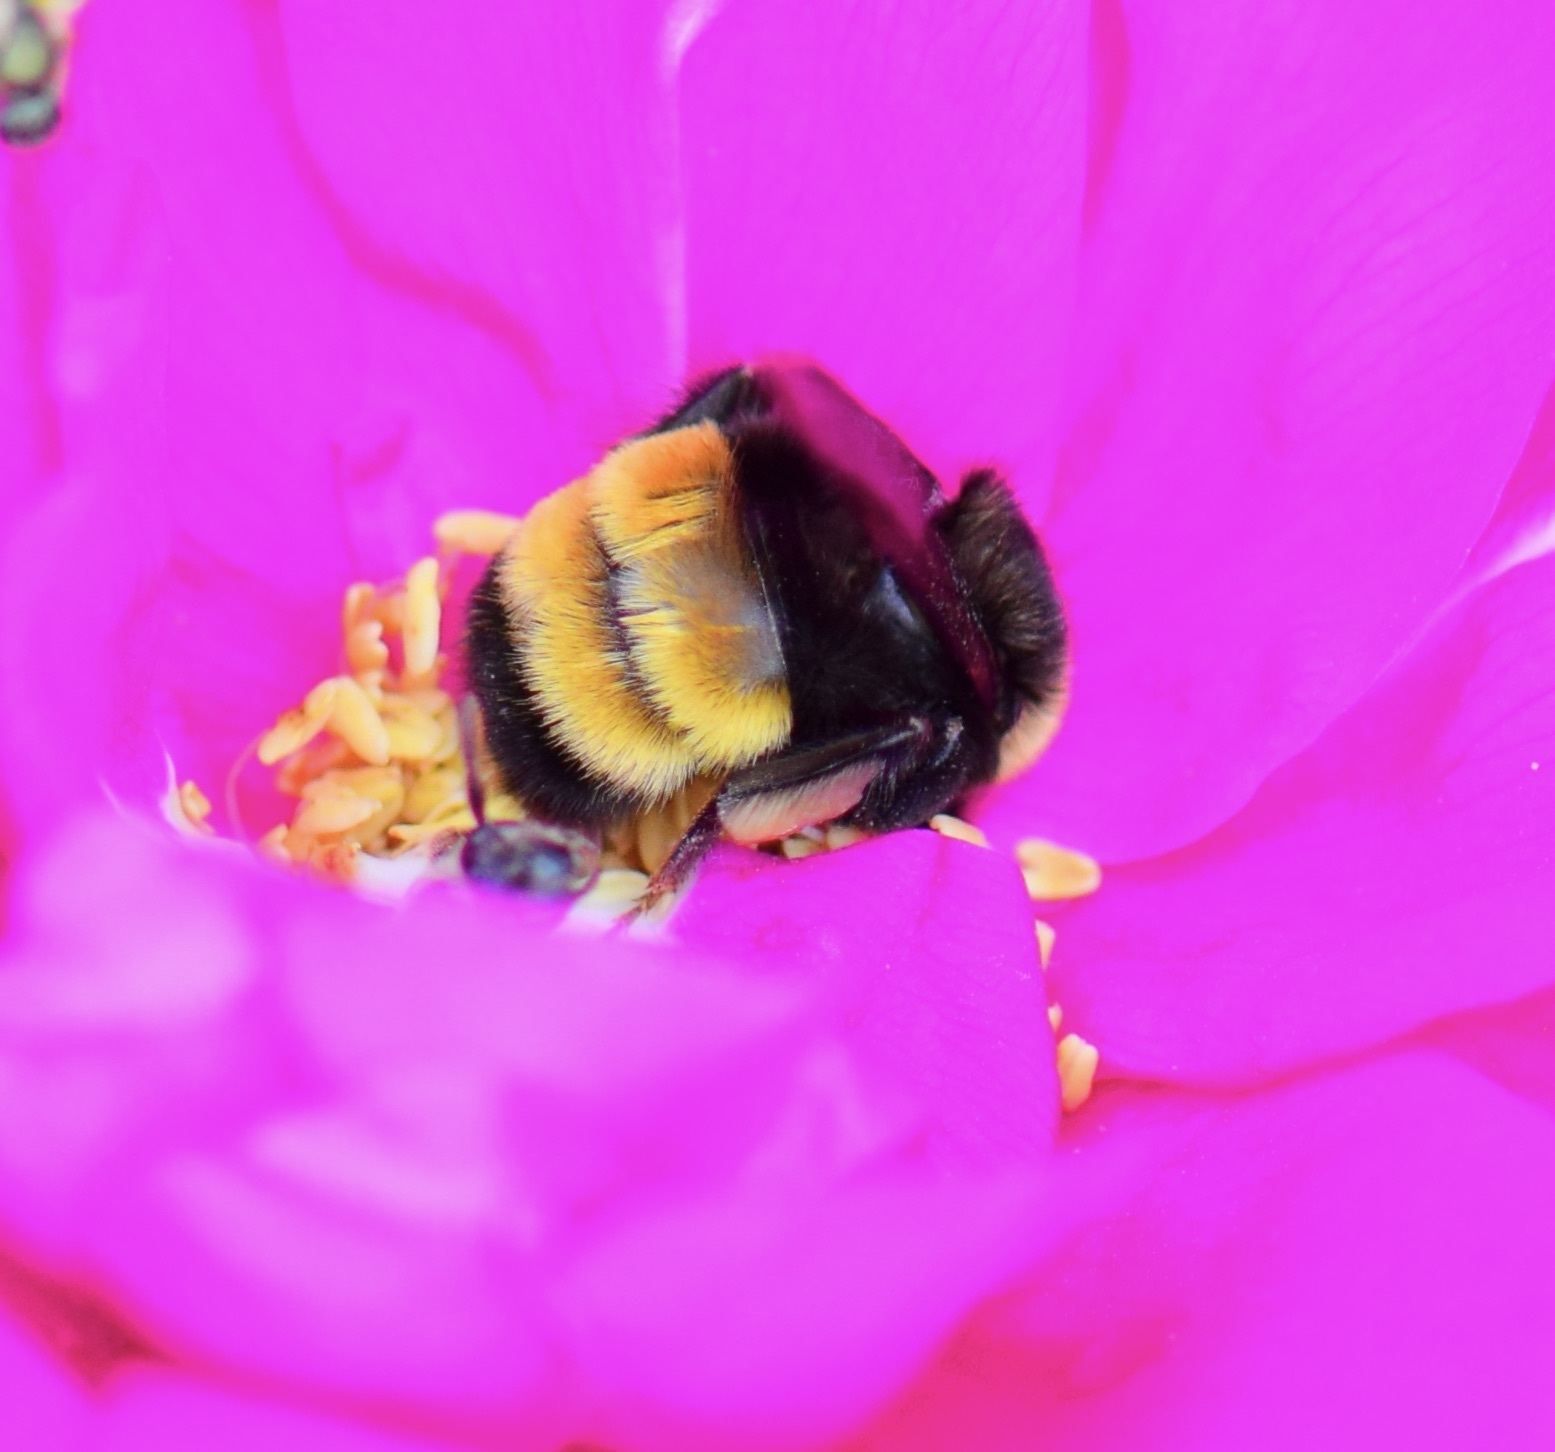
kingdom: Animalia
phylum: Arthropoda
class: Insecta
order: Hymenoptera
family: Apidae
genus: Bombus
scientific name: Bombus terricola
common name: Yellow-banded bumble bee
